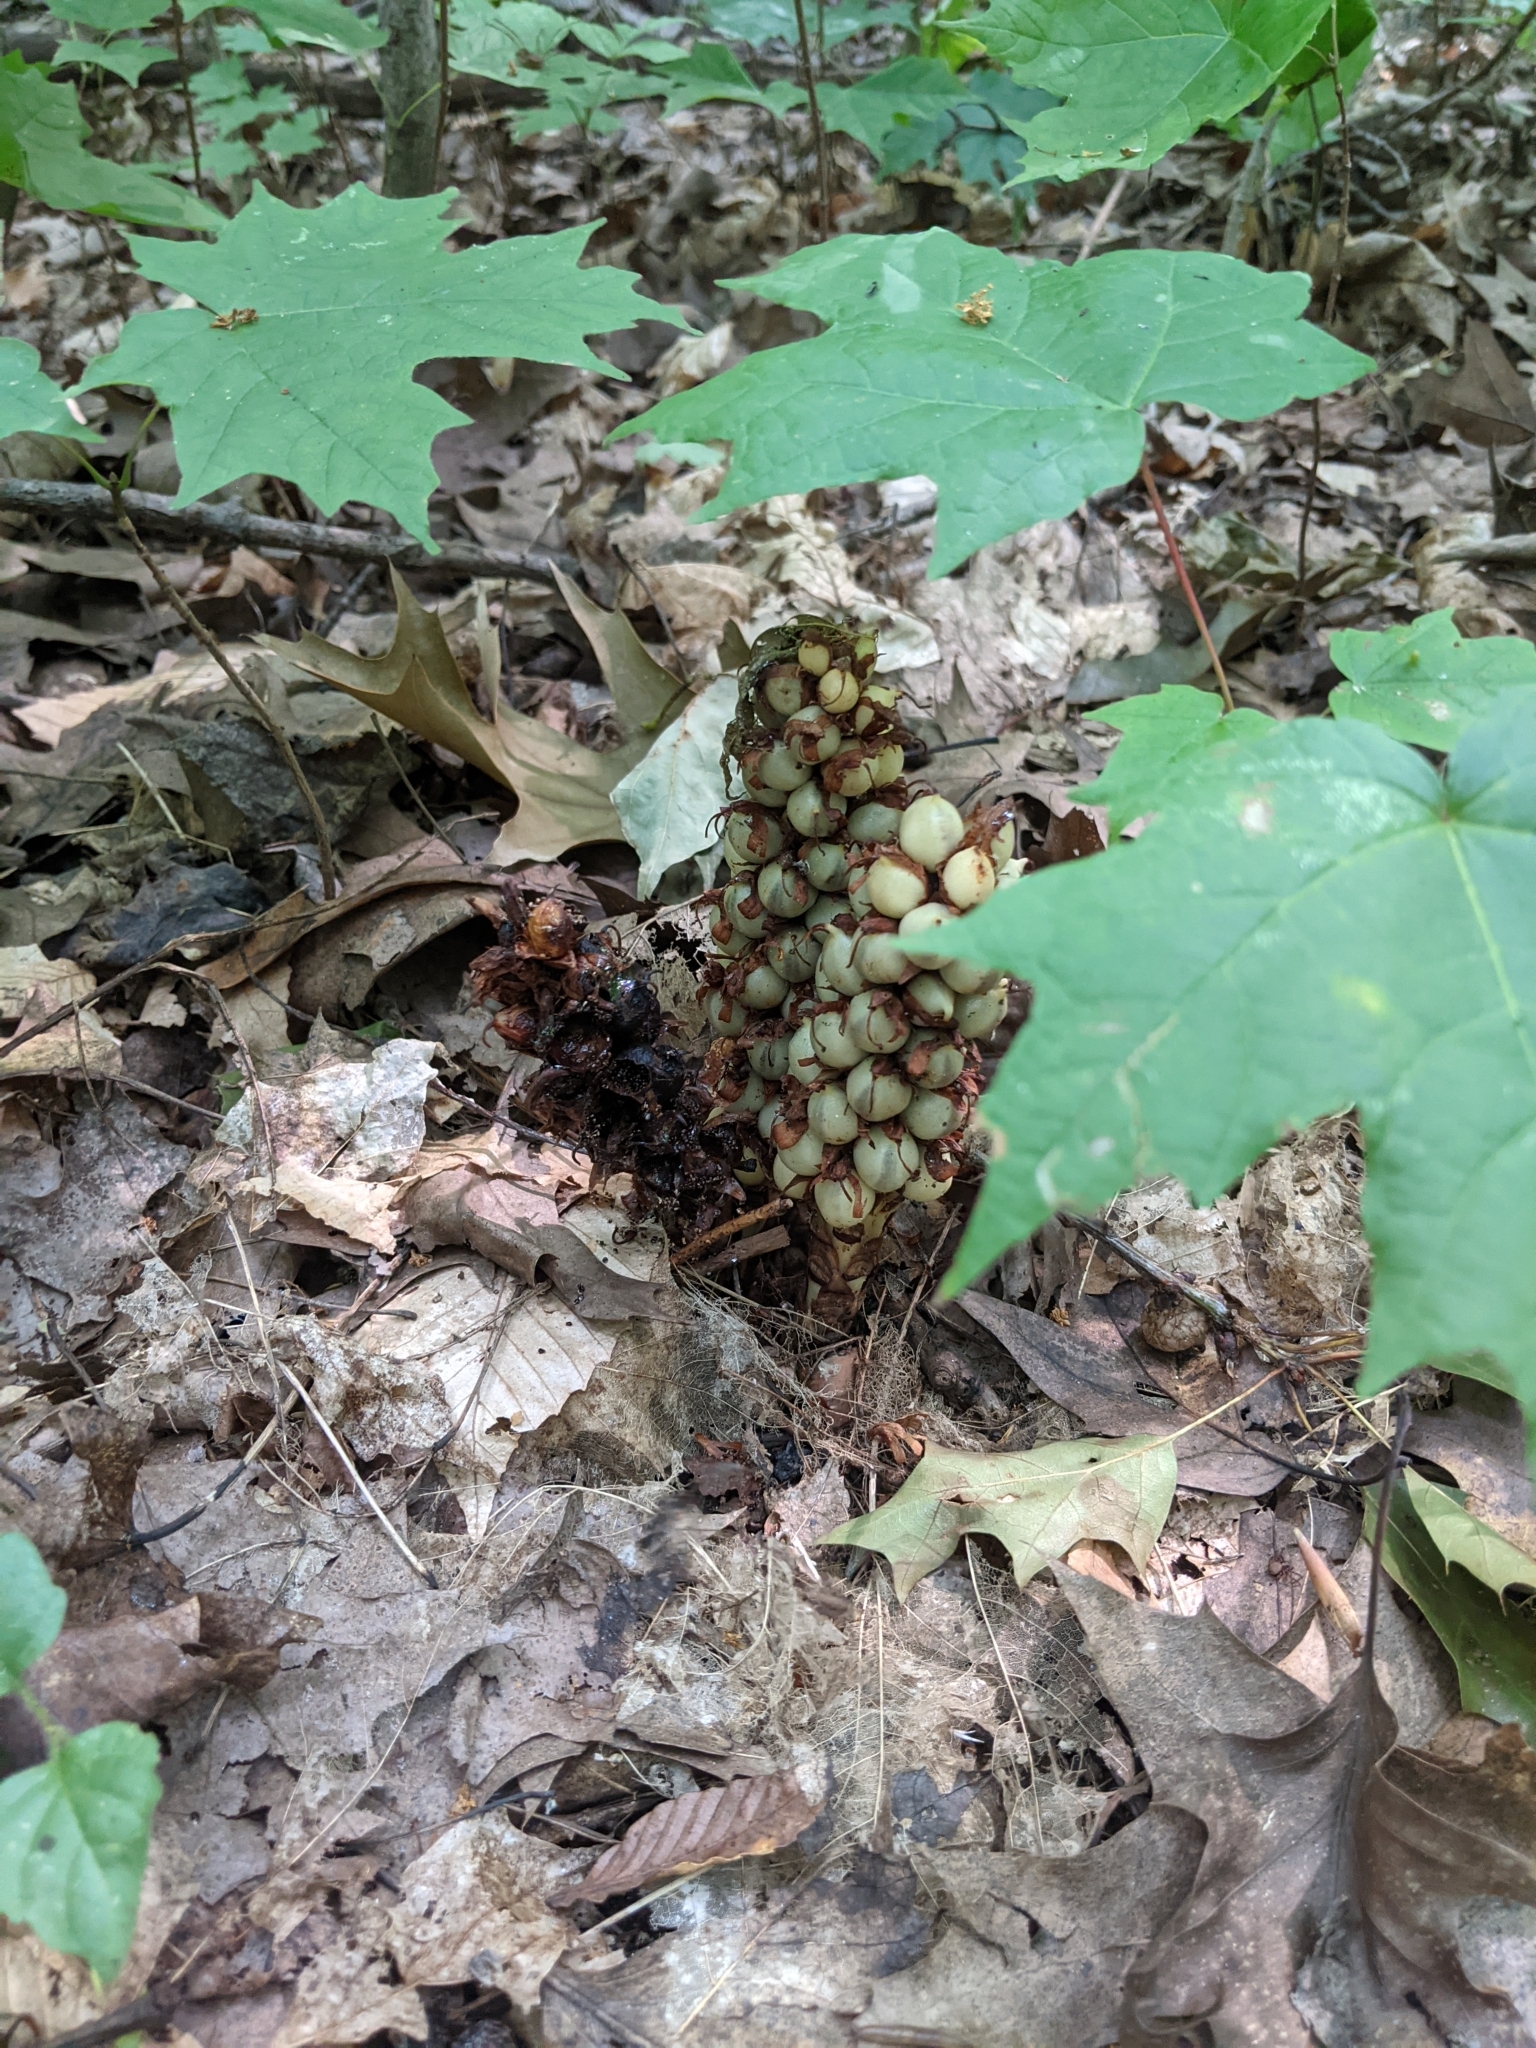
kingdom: Plantae
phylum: Tracheophyta
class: Magnoliopsida
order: Lamiales
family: Orobanchaceae
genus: Conopholis
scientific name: Conopholis americana
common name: American cancer-root
